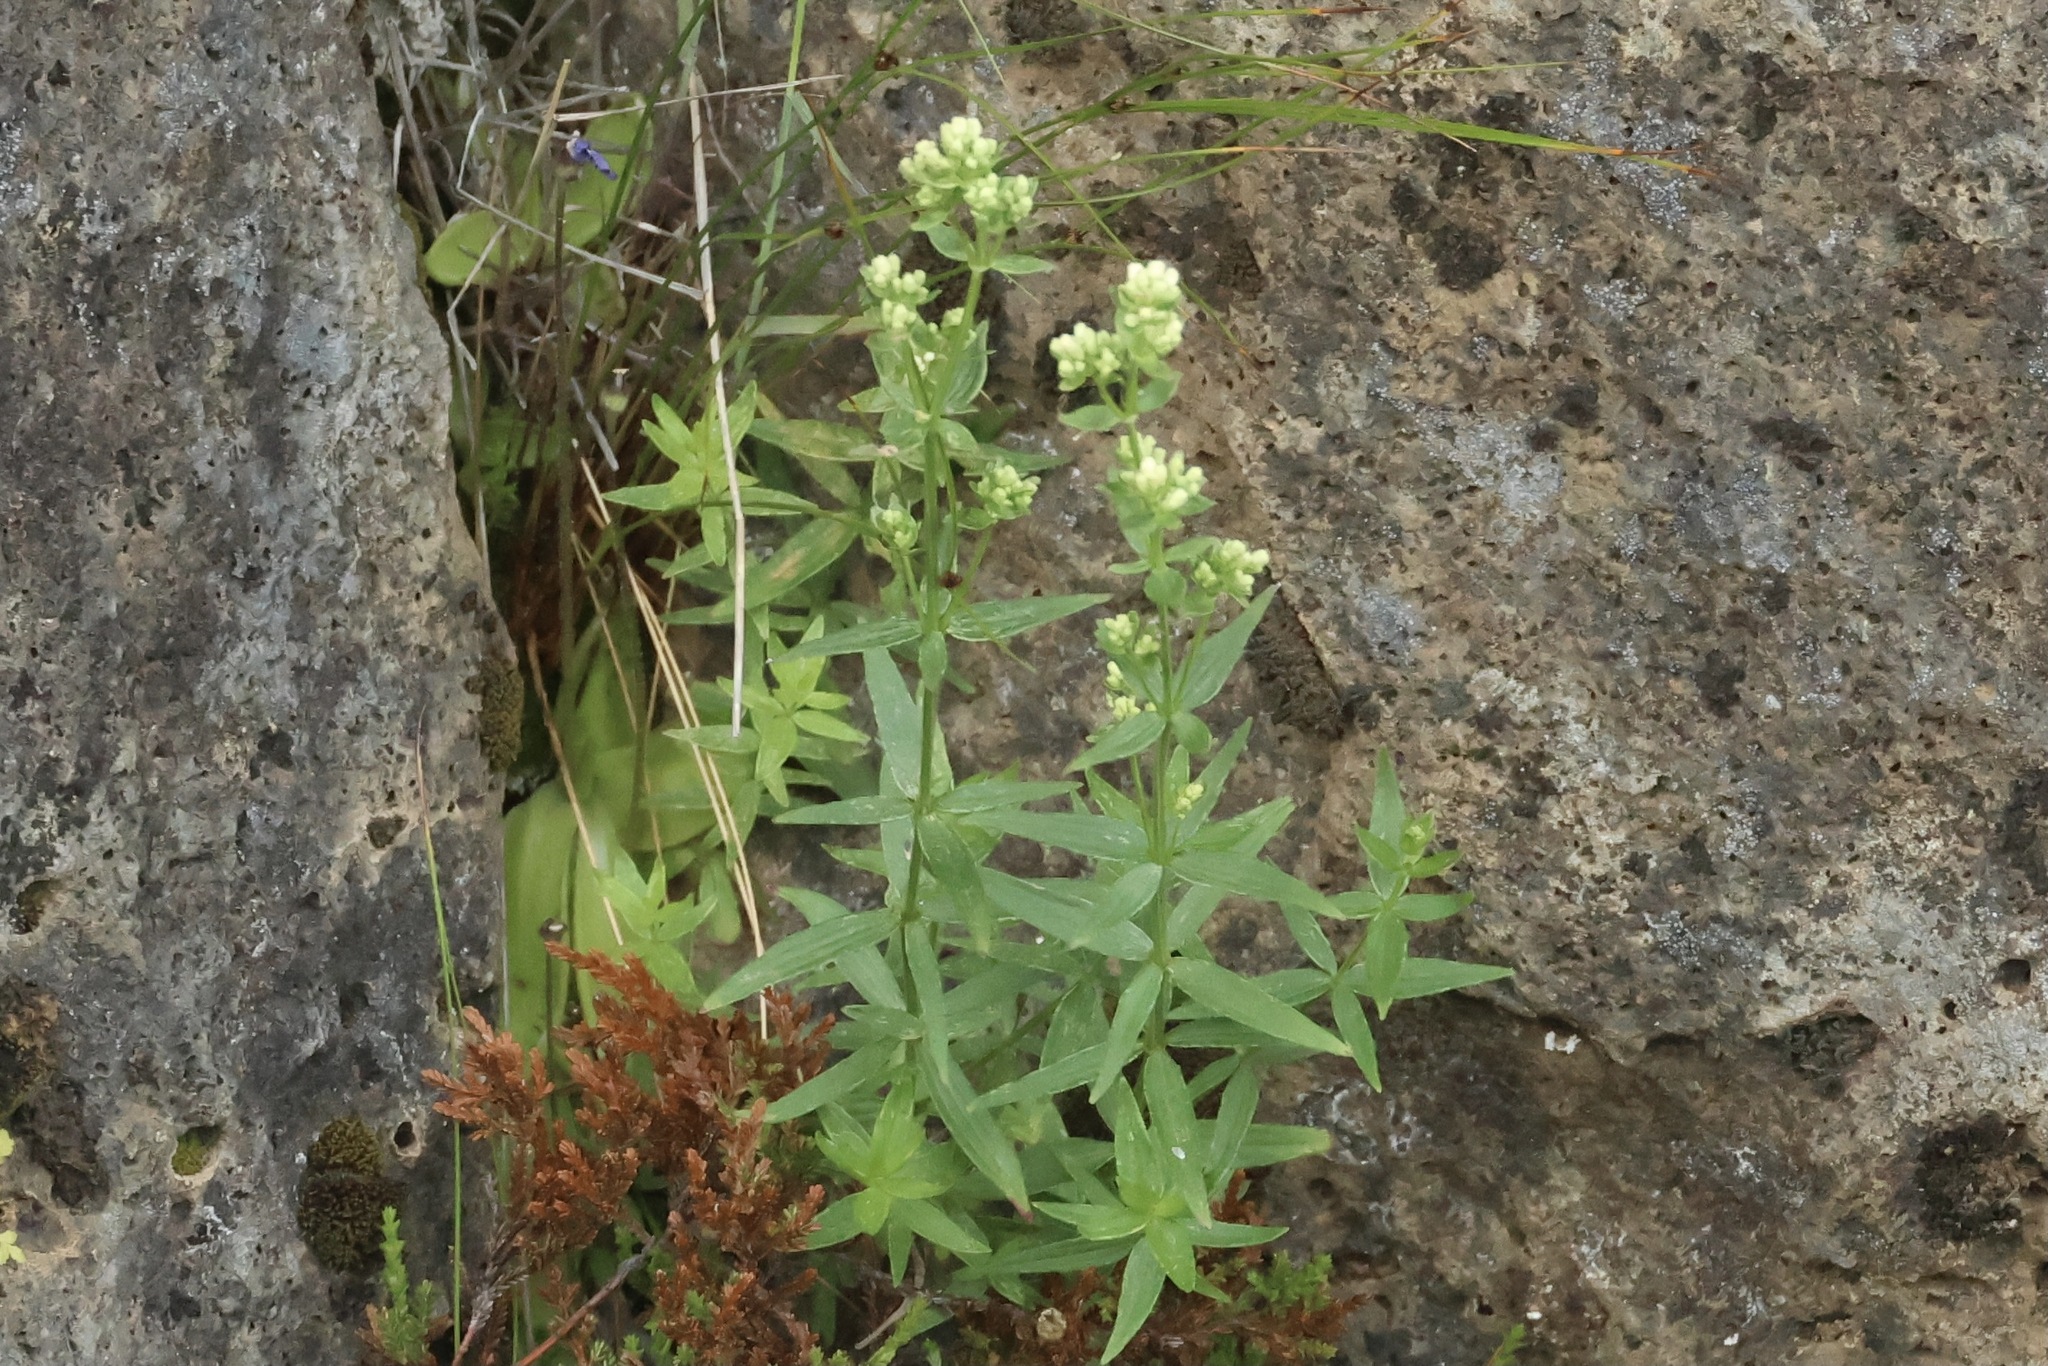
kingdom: Plantae
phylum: Tracheophyta
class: Magnoliopsida
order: Gentianales
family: Rubiaceae
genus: Galium
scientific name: Galium boreale
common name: Northern bedstraw
